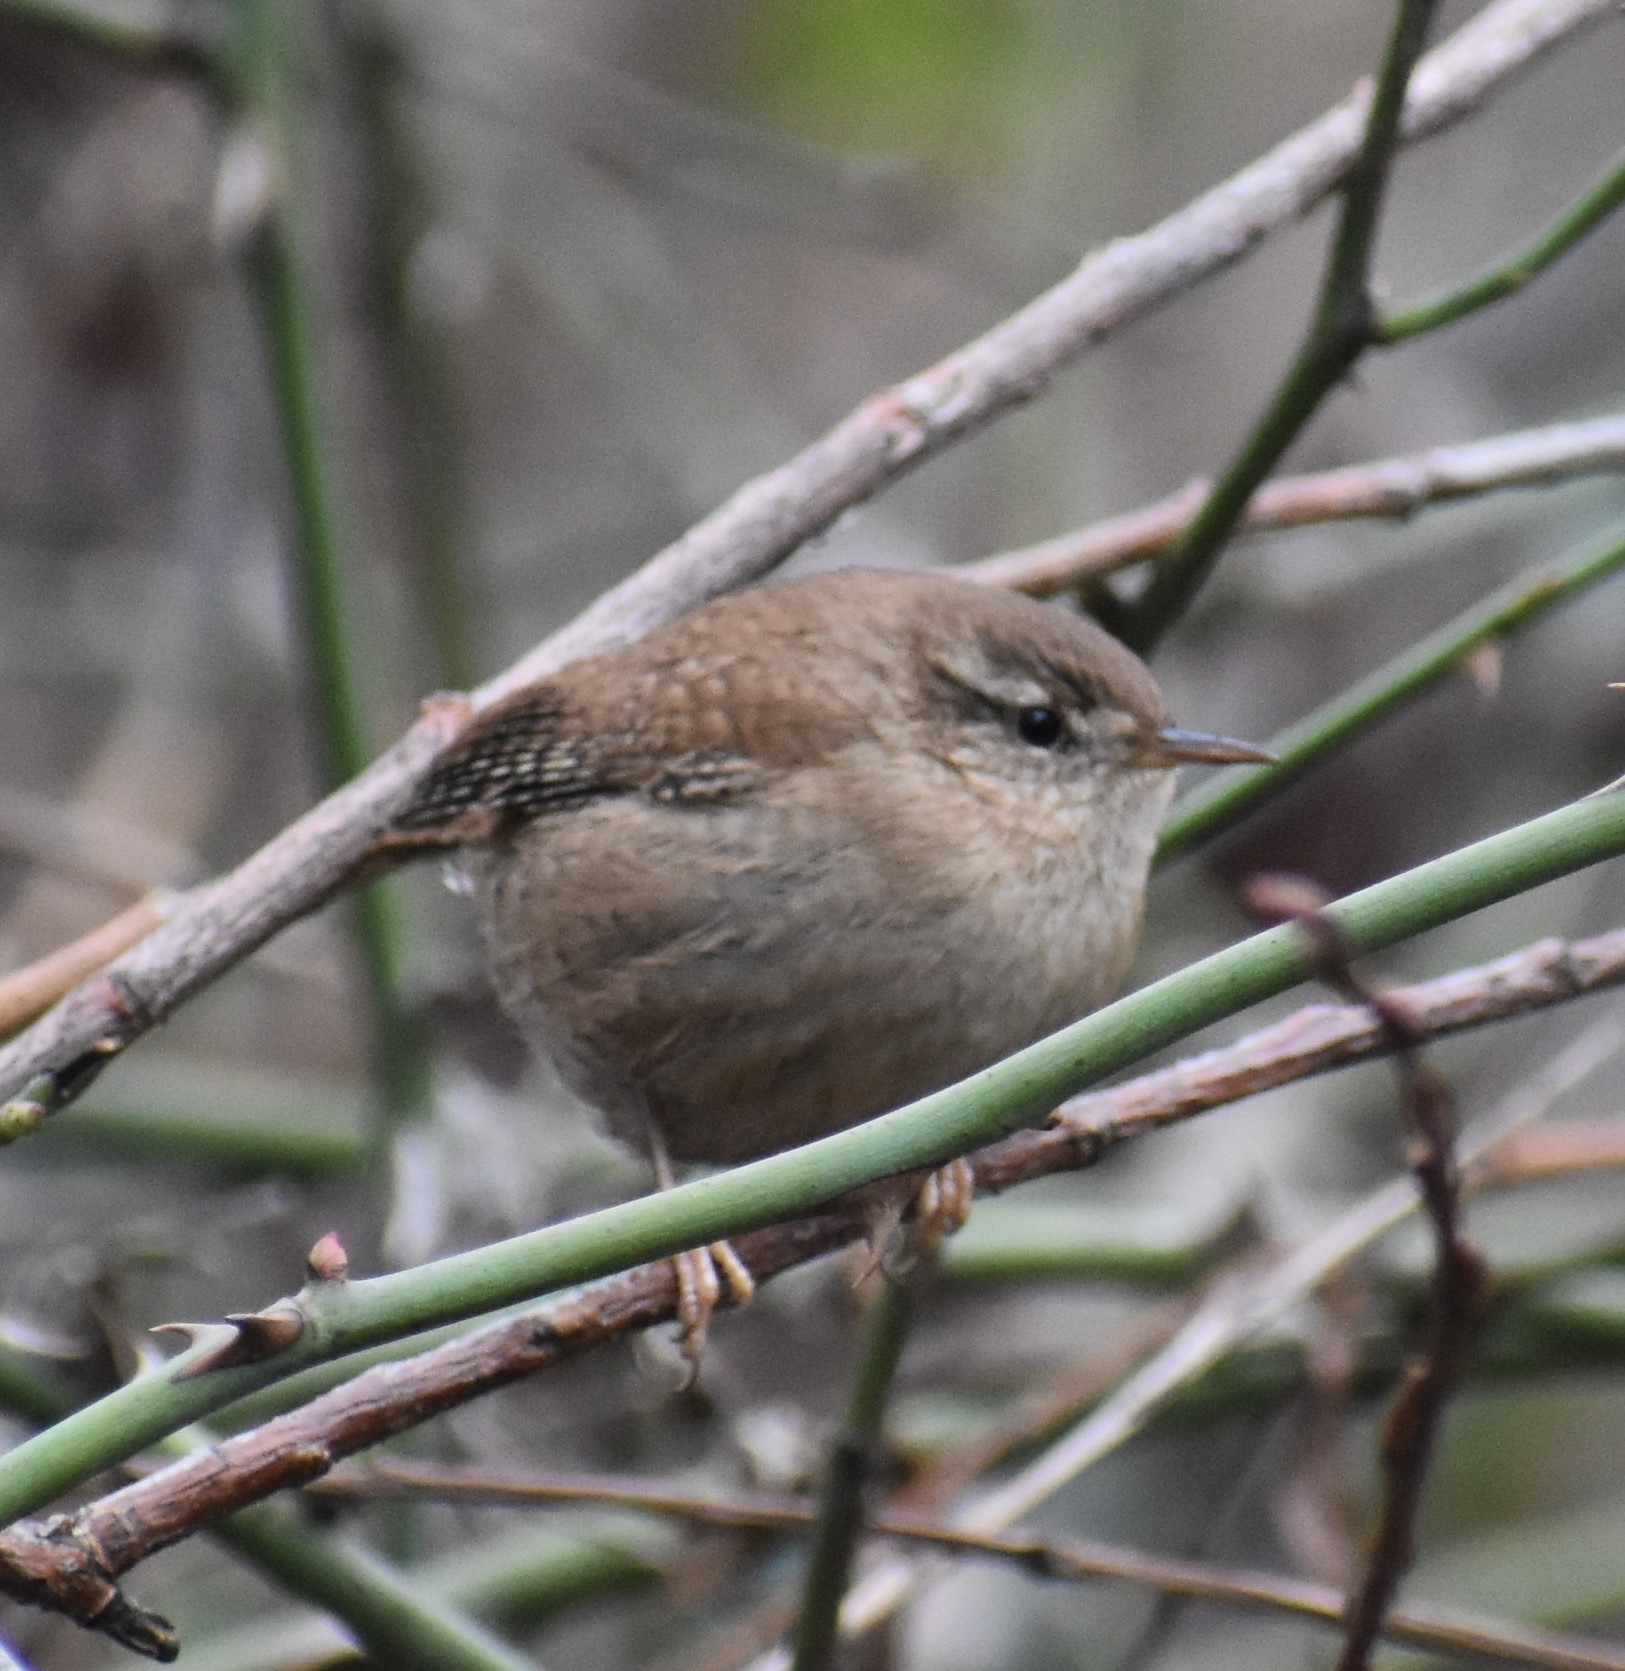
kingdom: Animalia
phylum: Chordata
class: Aves
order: Passeriformes
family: Troglodytidae
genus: Troglodytes
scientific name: Troglodytes troglodytes
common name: Eurasian wren
